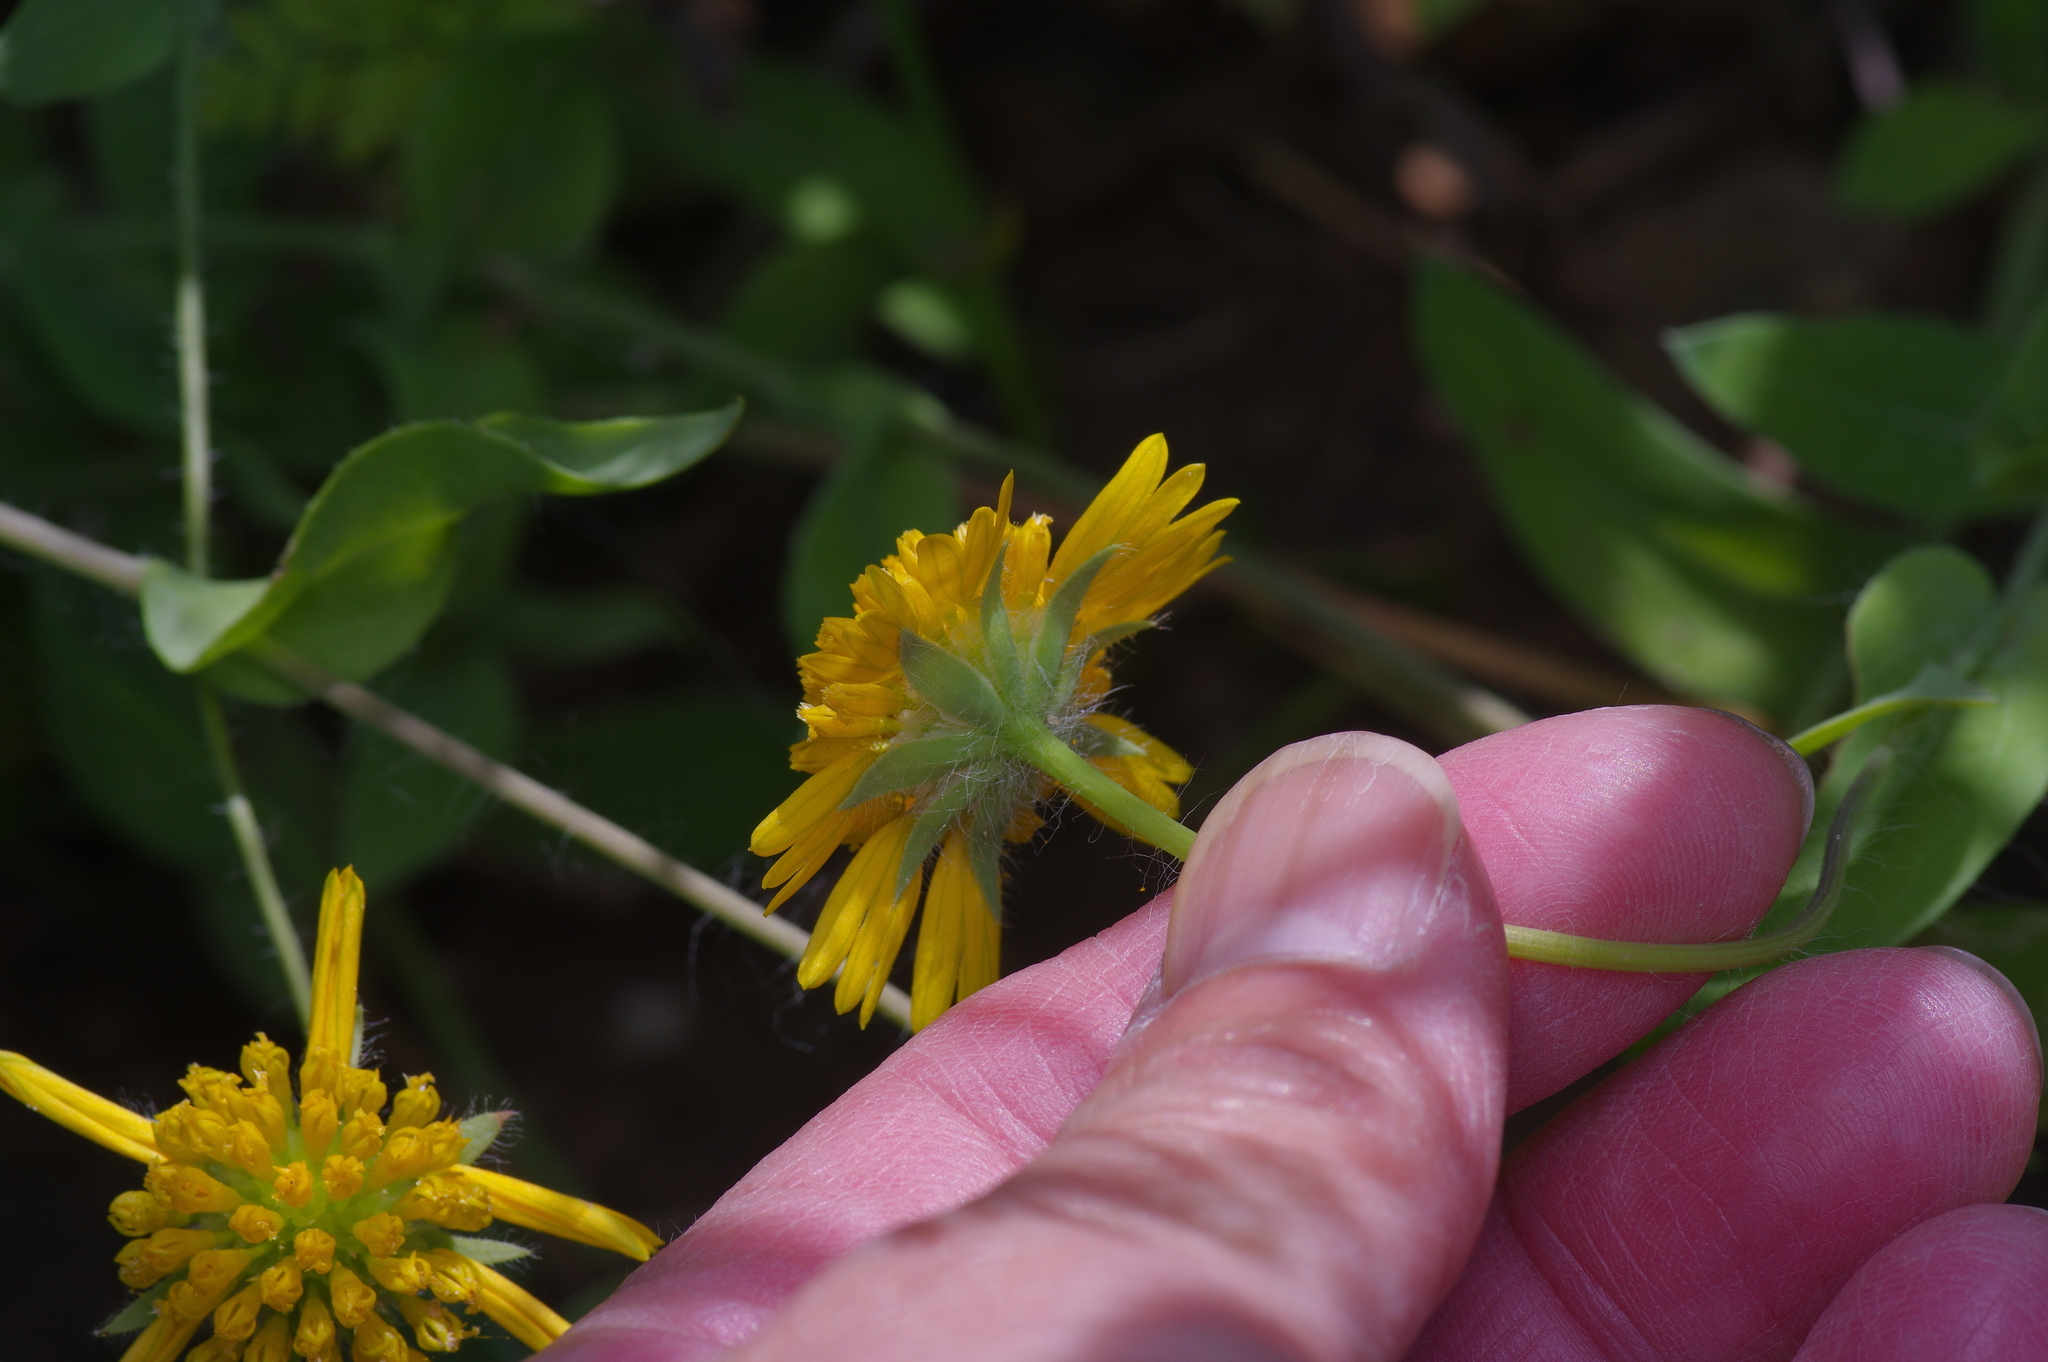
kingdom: Plantae
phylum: Tracheophyta
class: Magnoliopsida
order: Asterales
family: Asteraceae
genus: Amblyolepis
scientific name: Amblyolepis setigera
